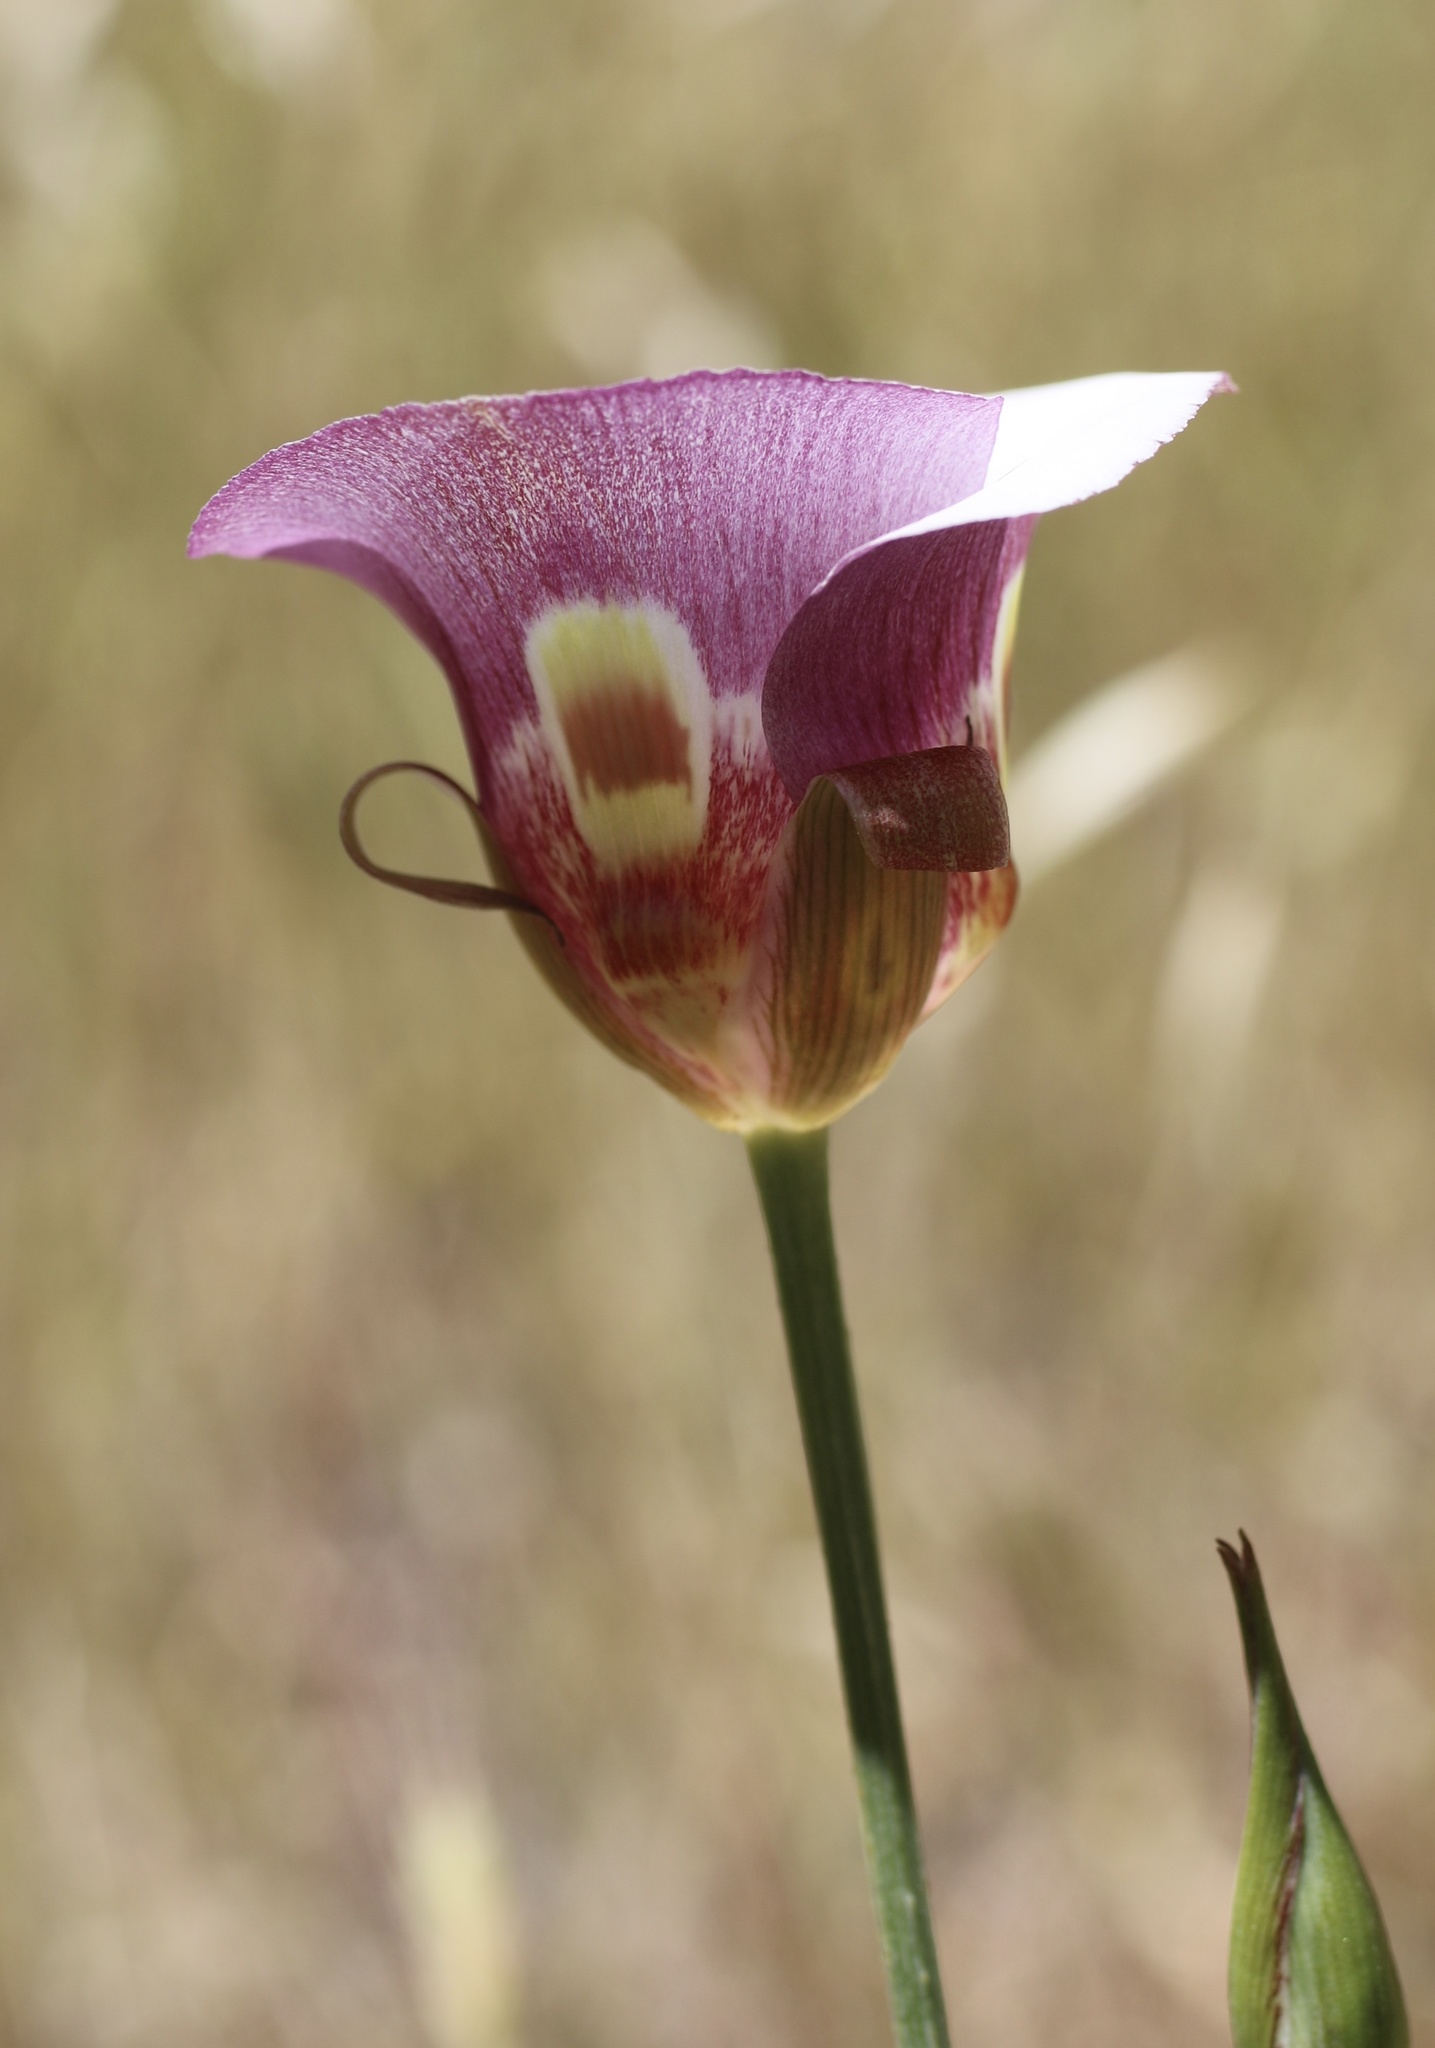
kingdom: Plantae
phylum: Tracheophyta
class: Liliopsida
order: Liliales
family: Liliaceae
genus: Calochortus
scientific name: Calochortus argillosus
